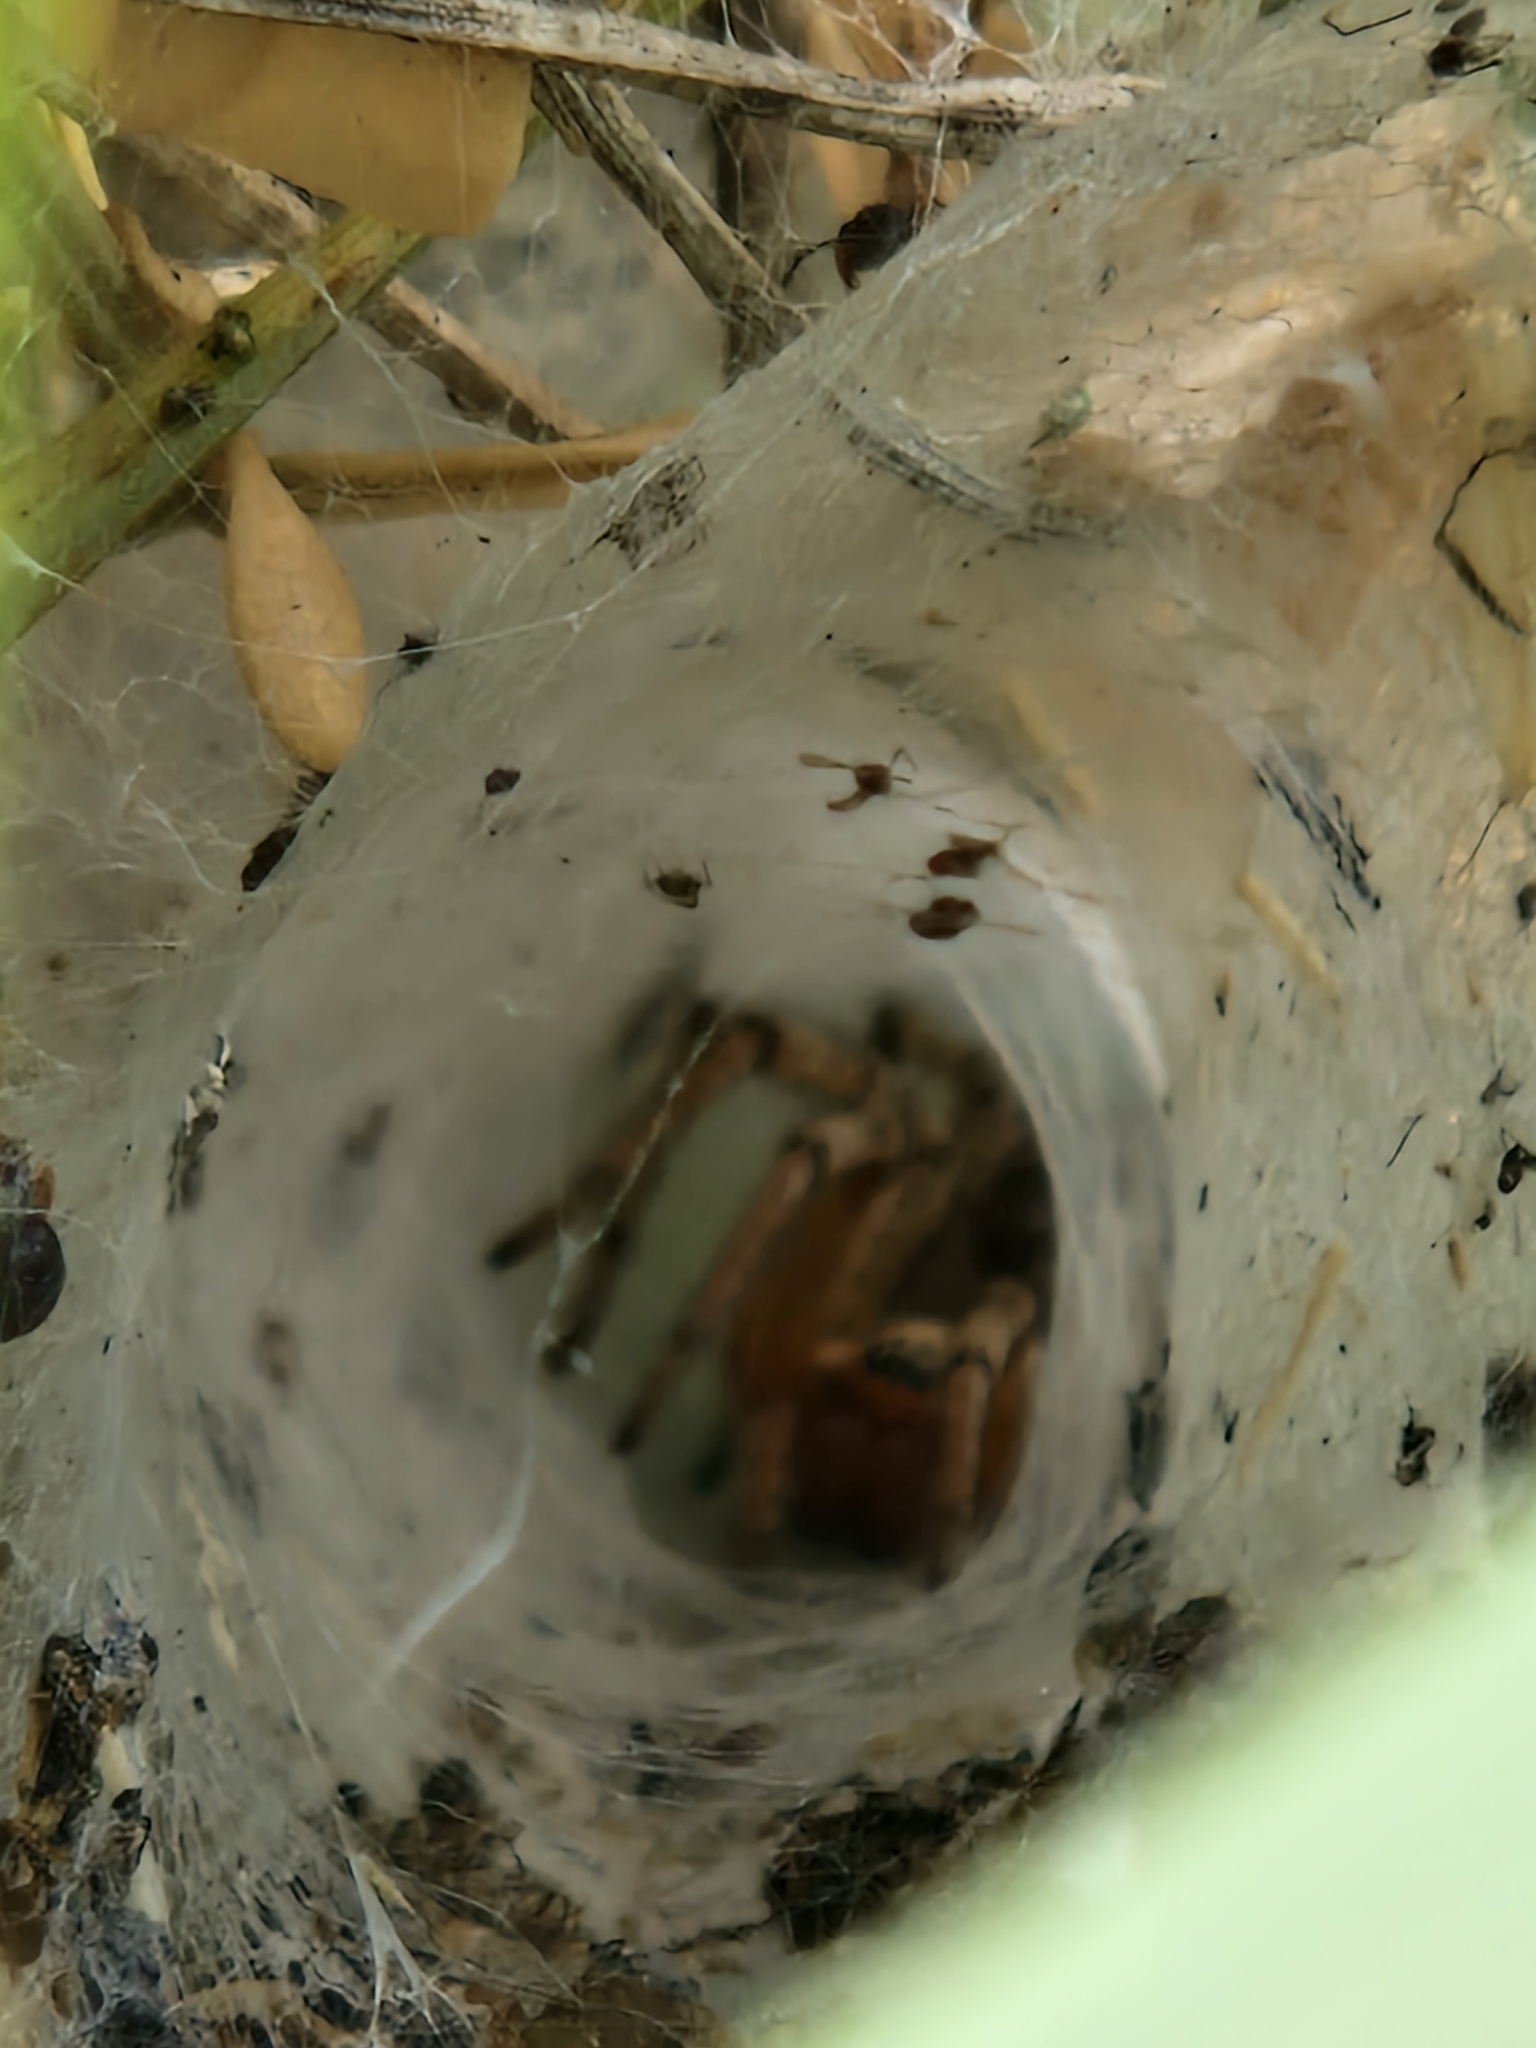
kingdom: Animalia
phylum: Arthropoda
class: Arachnida
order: Araneae
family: Agelenidae
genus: Agelena
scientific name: Agelena labyrinthica
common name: Labyrinth spider
